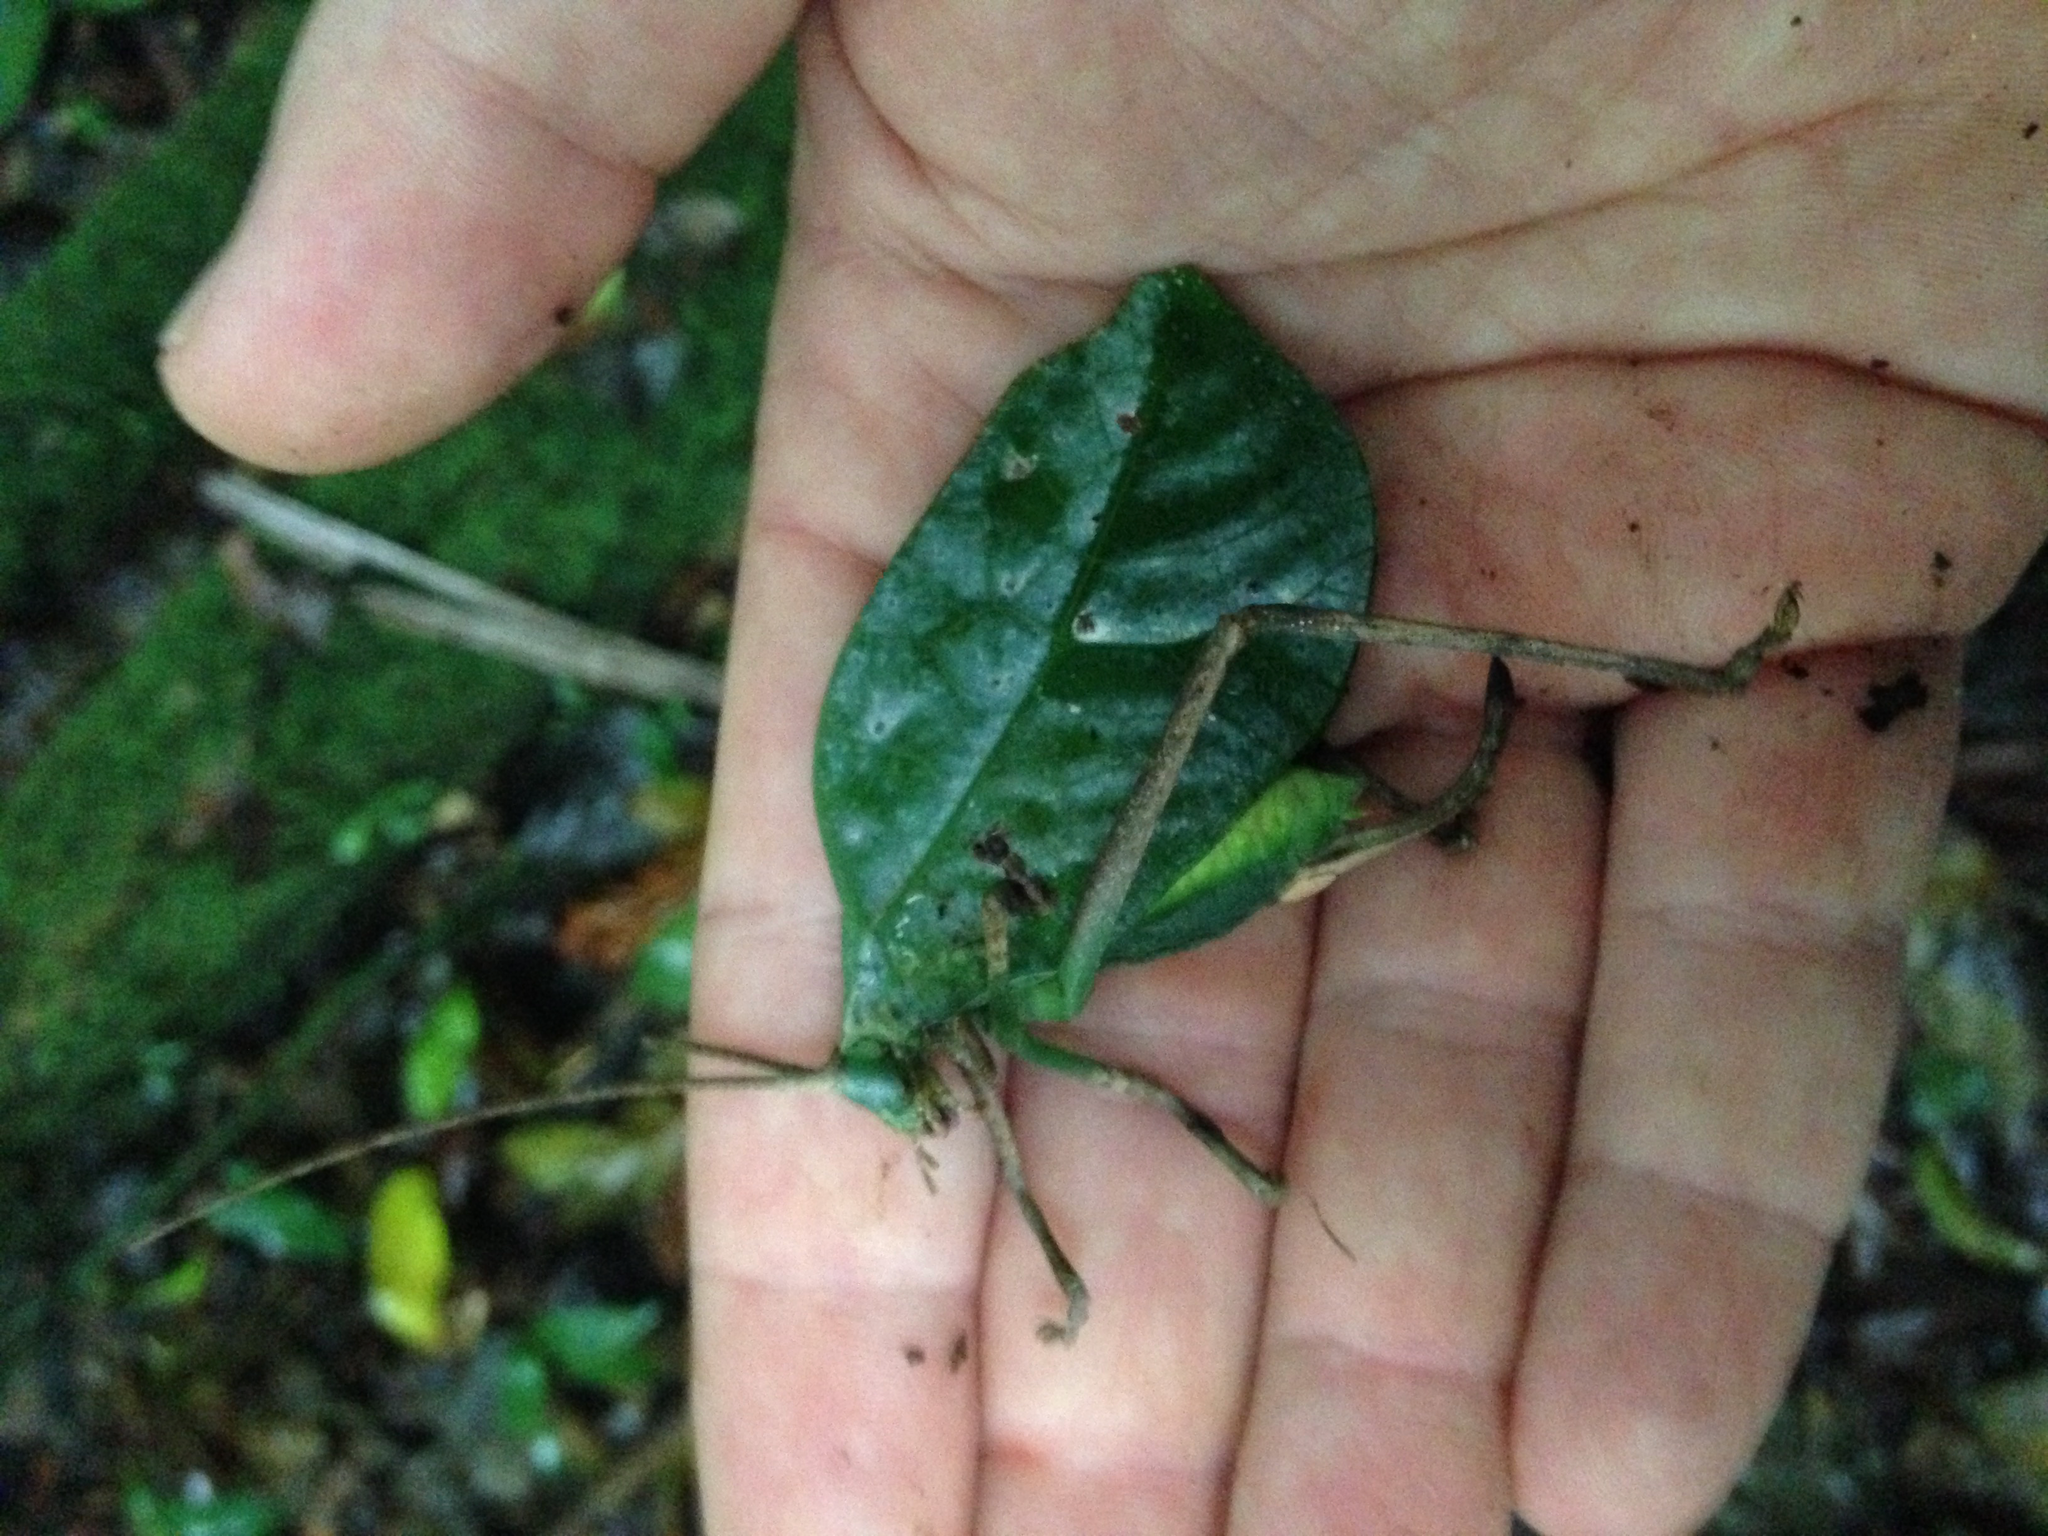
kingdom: Animalia
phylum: Arthropoda
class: Insecta
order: Orthoptera
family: Tettigoniidae
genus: Cycloptera
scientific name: Cycloptera speculata
